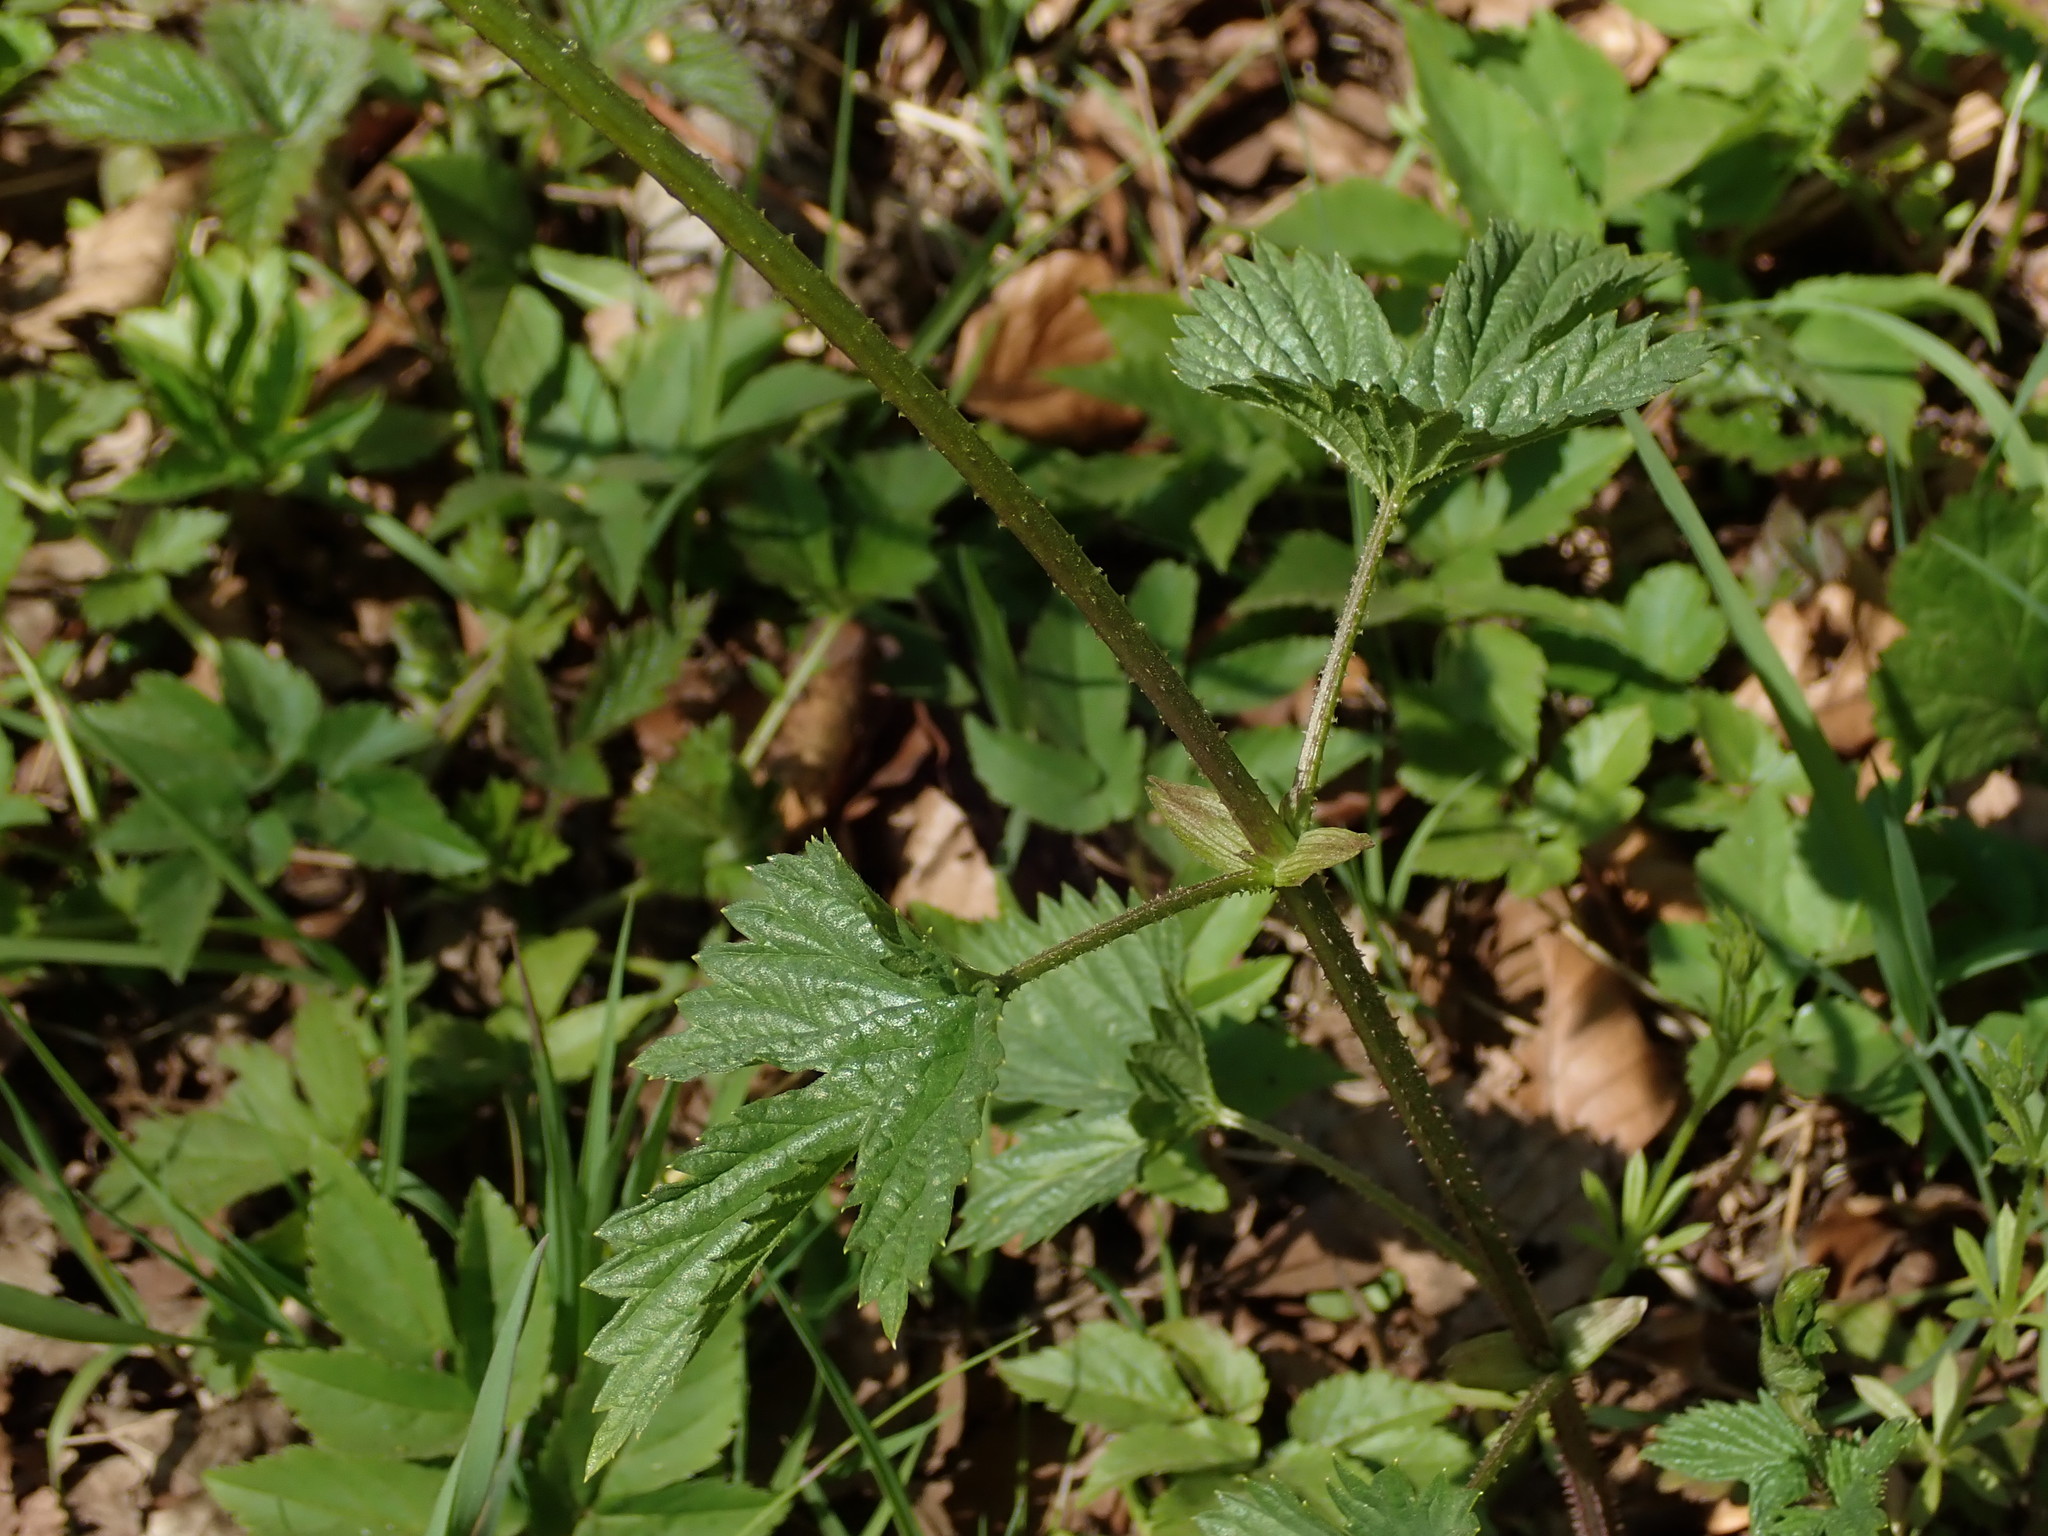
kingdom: Plantae
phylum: Tracheophyta
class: Magnoliopsida
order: Rosales
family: Cannabaceae
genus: Humulus
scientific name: Humulus lupulus
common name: Hop
